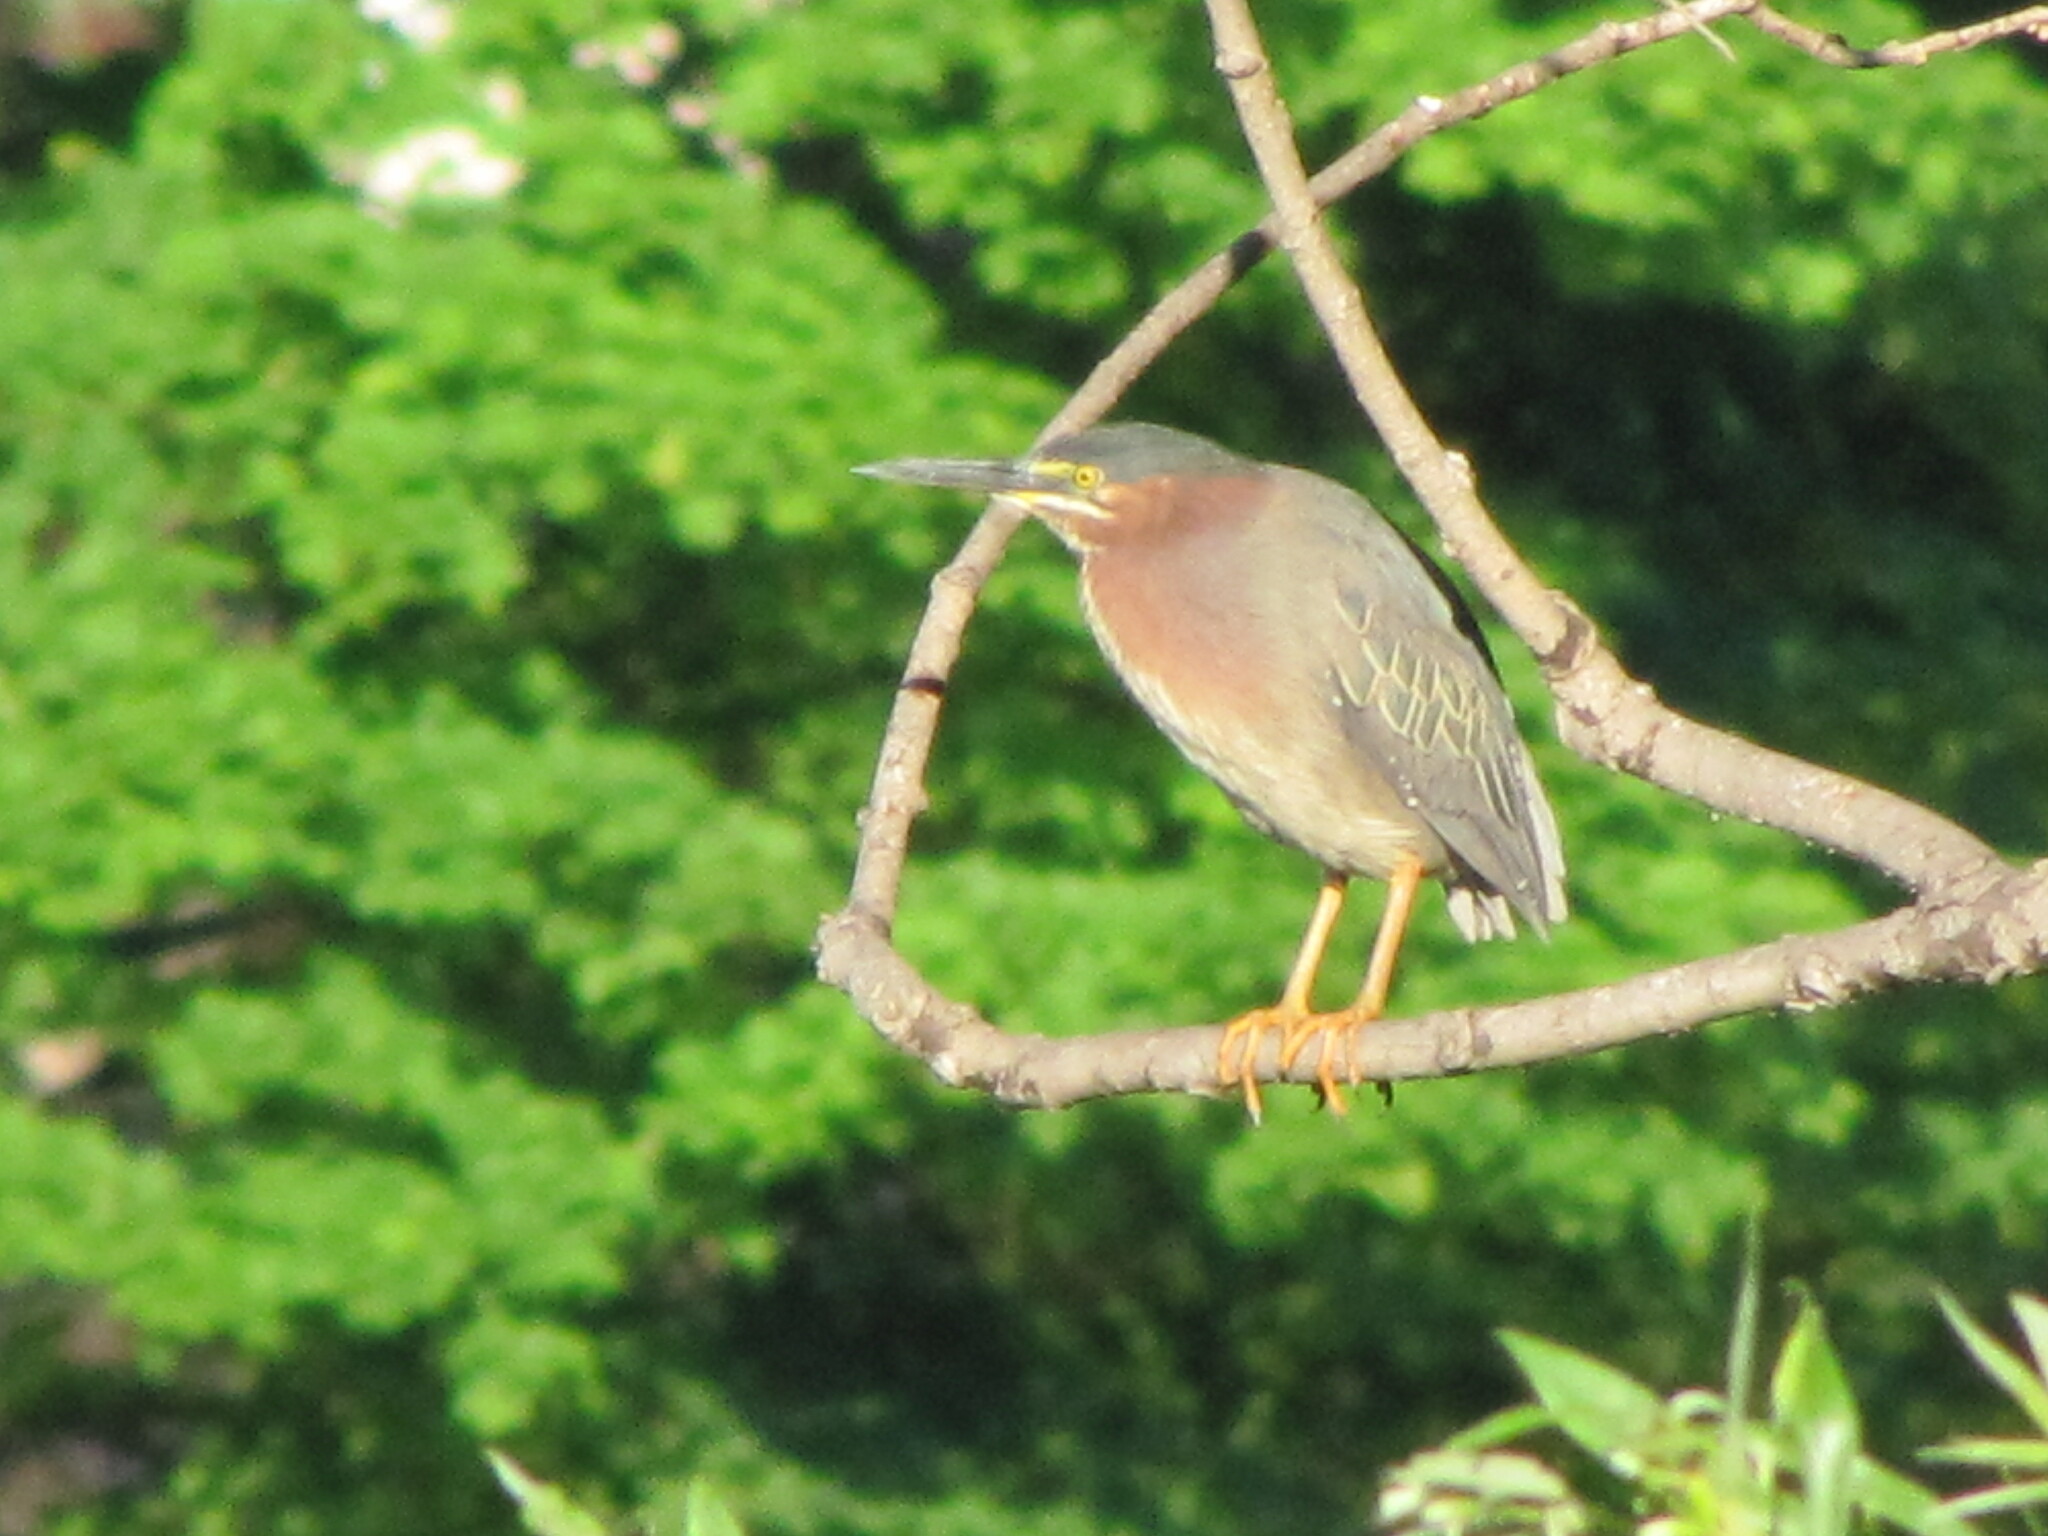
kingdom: Animalia
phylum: Chordata
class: Aves
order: Pelecaniformes
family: Ardeidae
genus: Butorides
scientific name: Butorides virescens
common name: Green heron
